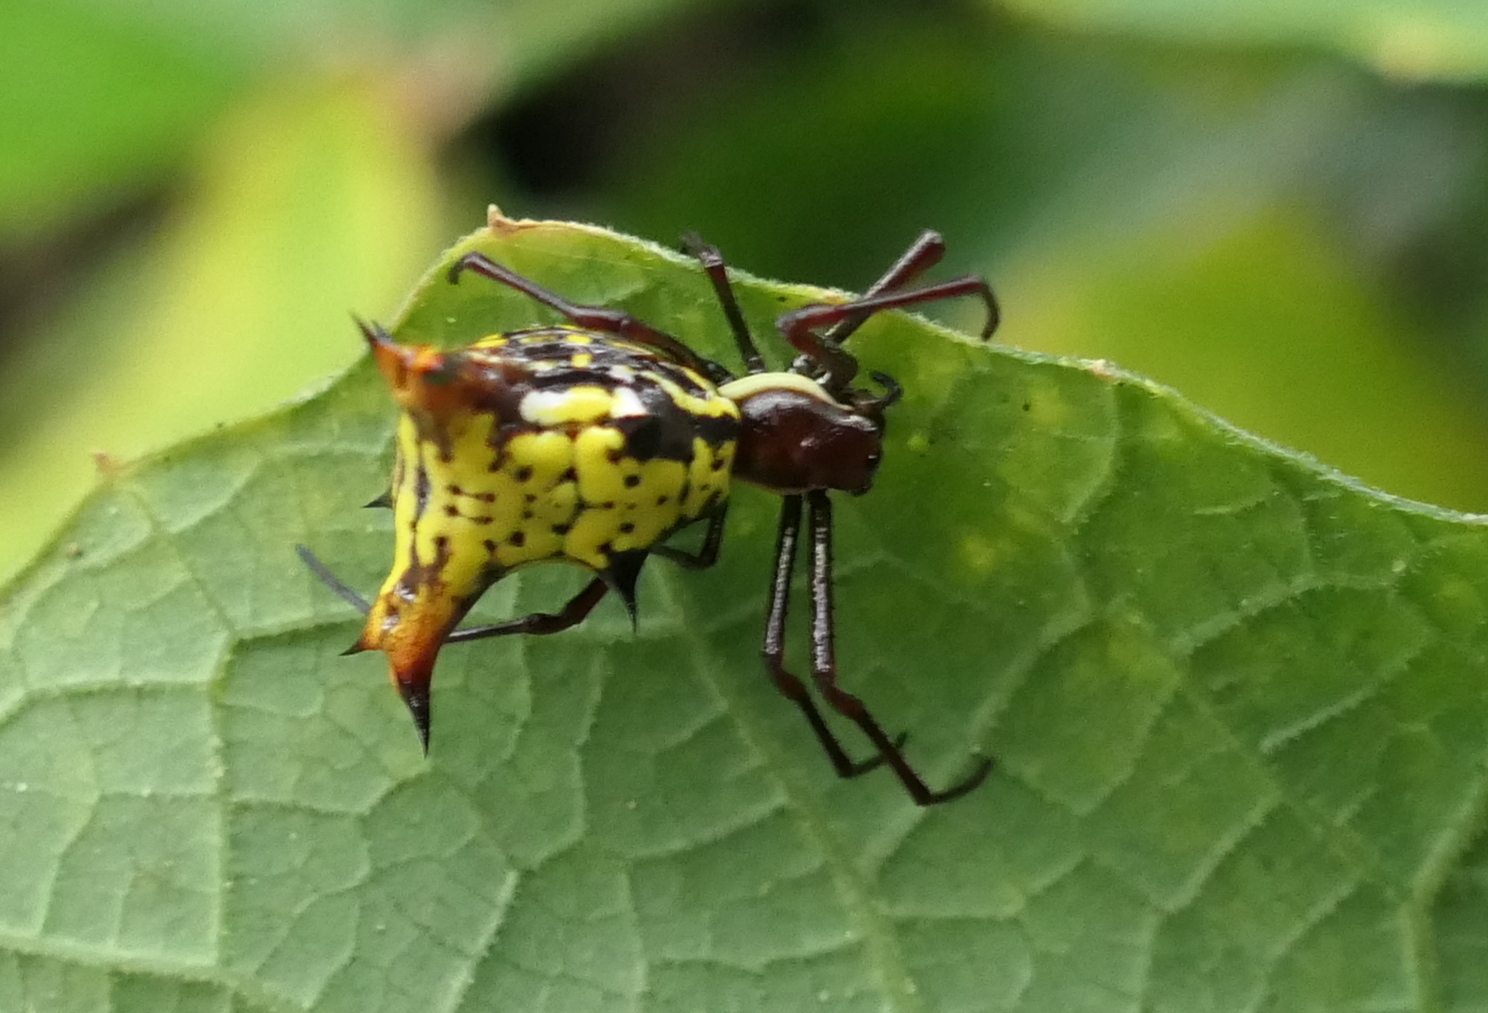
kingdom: Animalia
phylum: Arthropoda
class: Arachnida
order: Araneae
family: Araneidae
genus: Micrathena
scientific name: Micrathena fissispina
